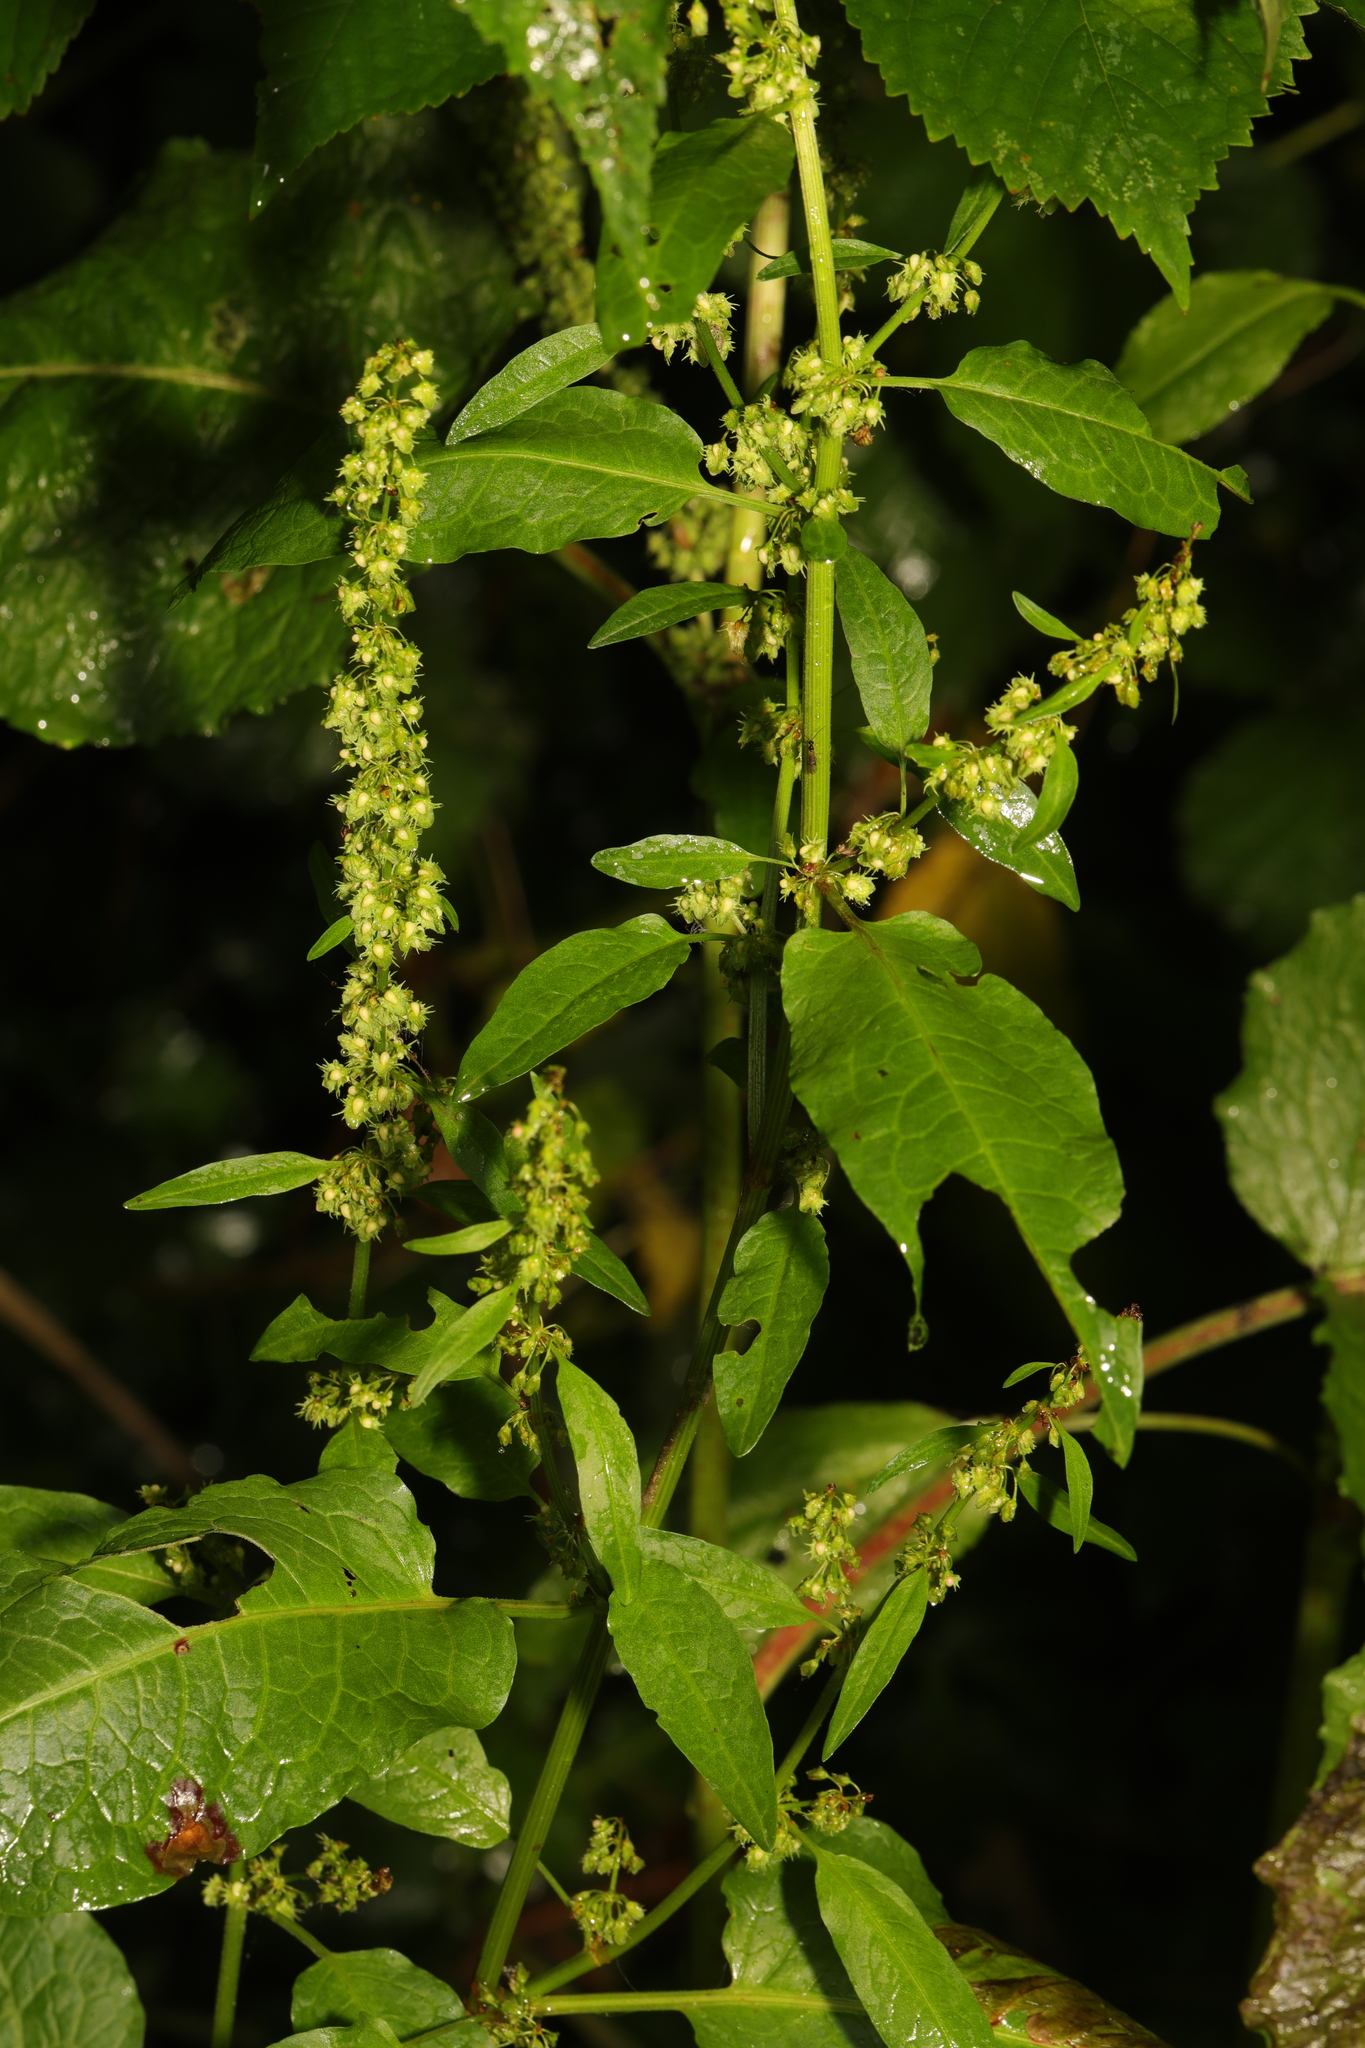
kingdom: Plantae
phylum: Tracheophyta
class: Magnoliopsida
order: Caryophyllales
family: Polygonaceae
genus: Rumex
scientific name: Rumex obtusifolius
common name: Bitter dock
